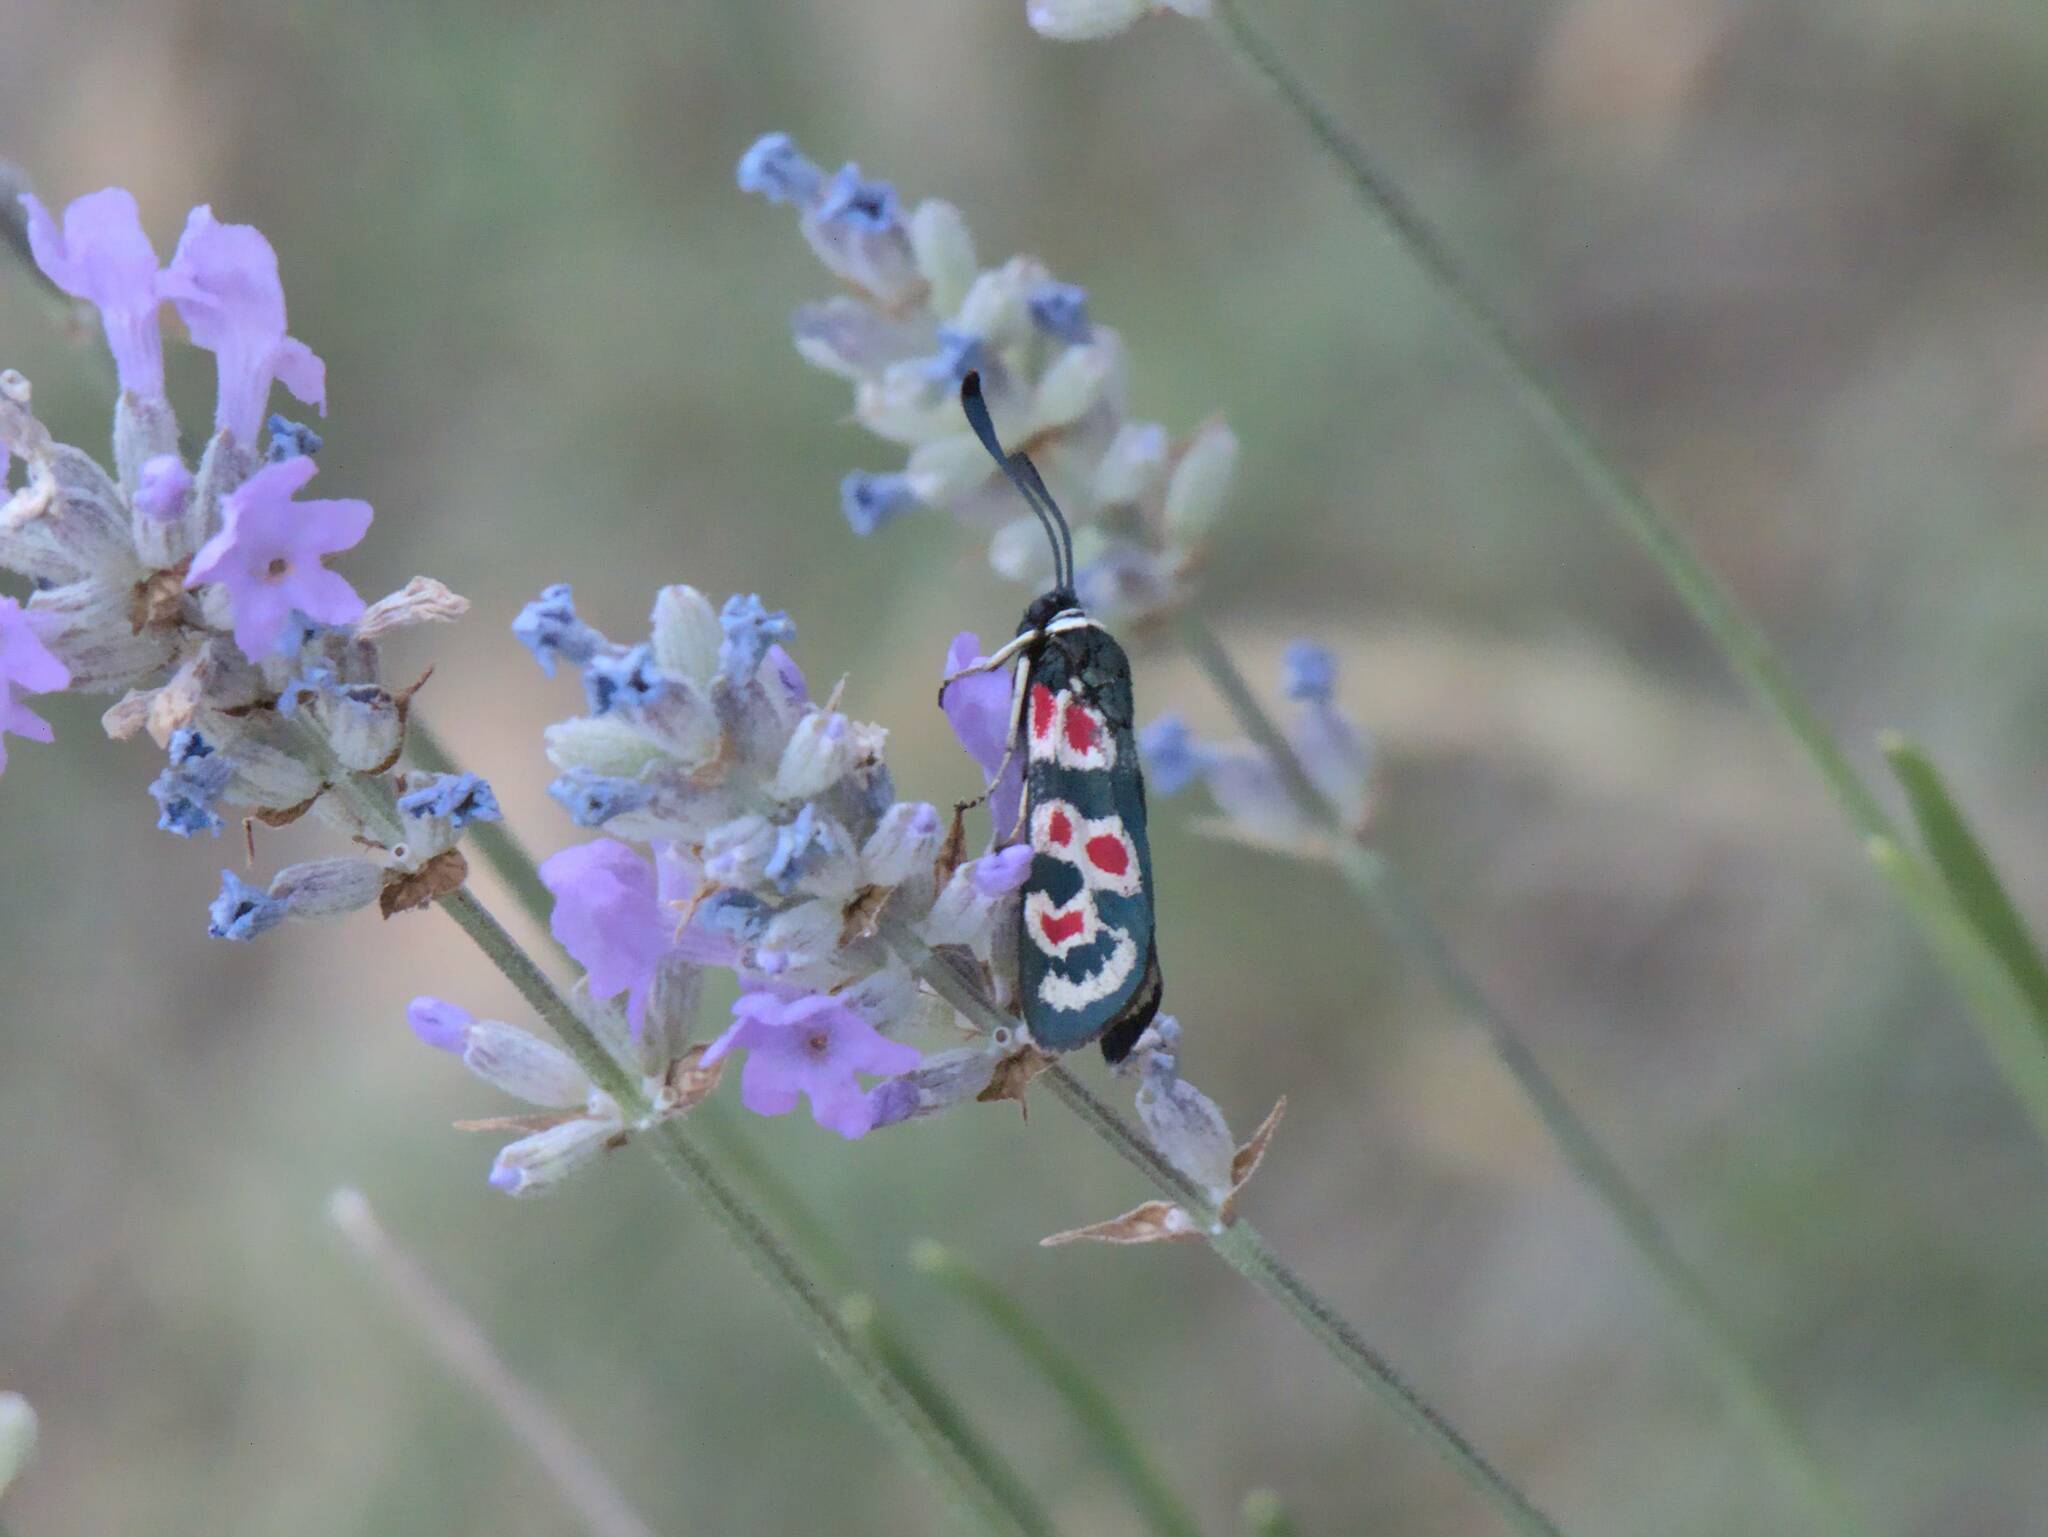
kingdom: Animalia
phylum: Arthropoda
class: Insecta
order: Lepidoptera
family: Zygaenidae
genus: Zygaena
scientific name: Zygaena occitanica
